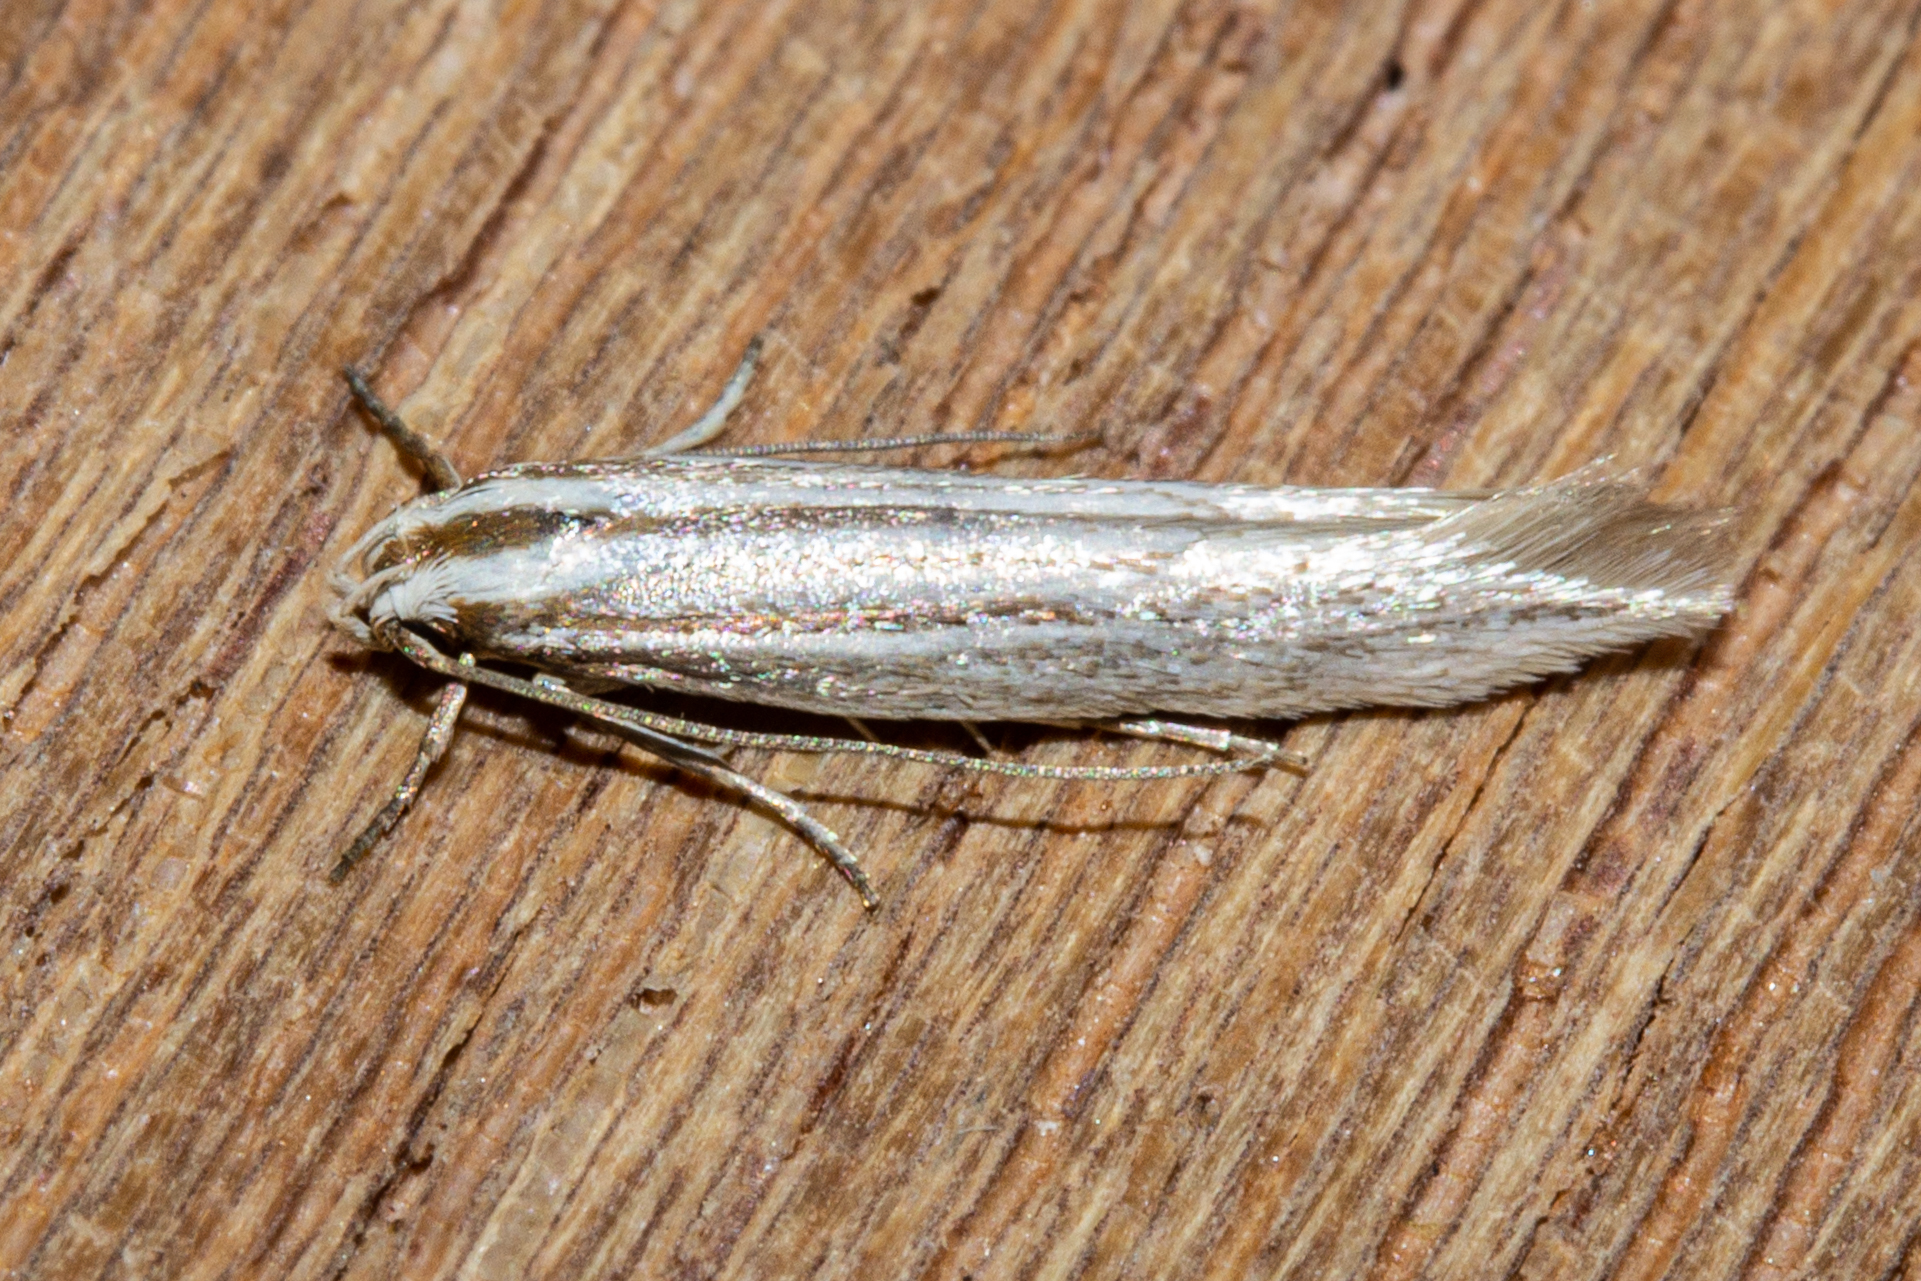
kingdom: Animalia
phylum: Arthropoda
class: Insecta
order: Lepidoptera
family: Elachistidae
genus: Elachista
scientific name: Elachista thallophora
